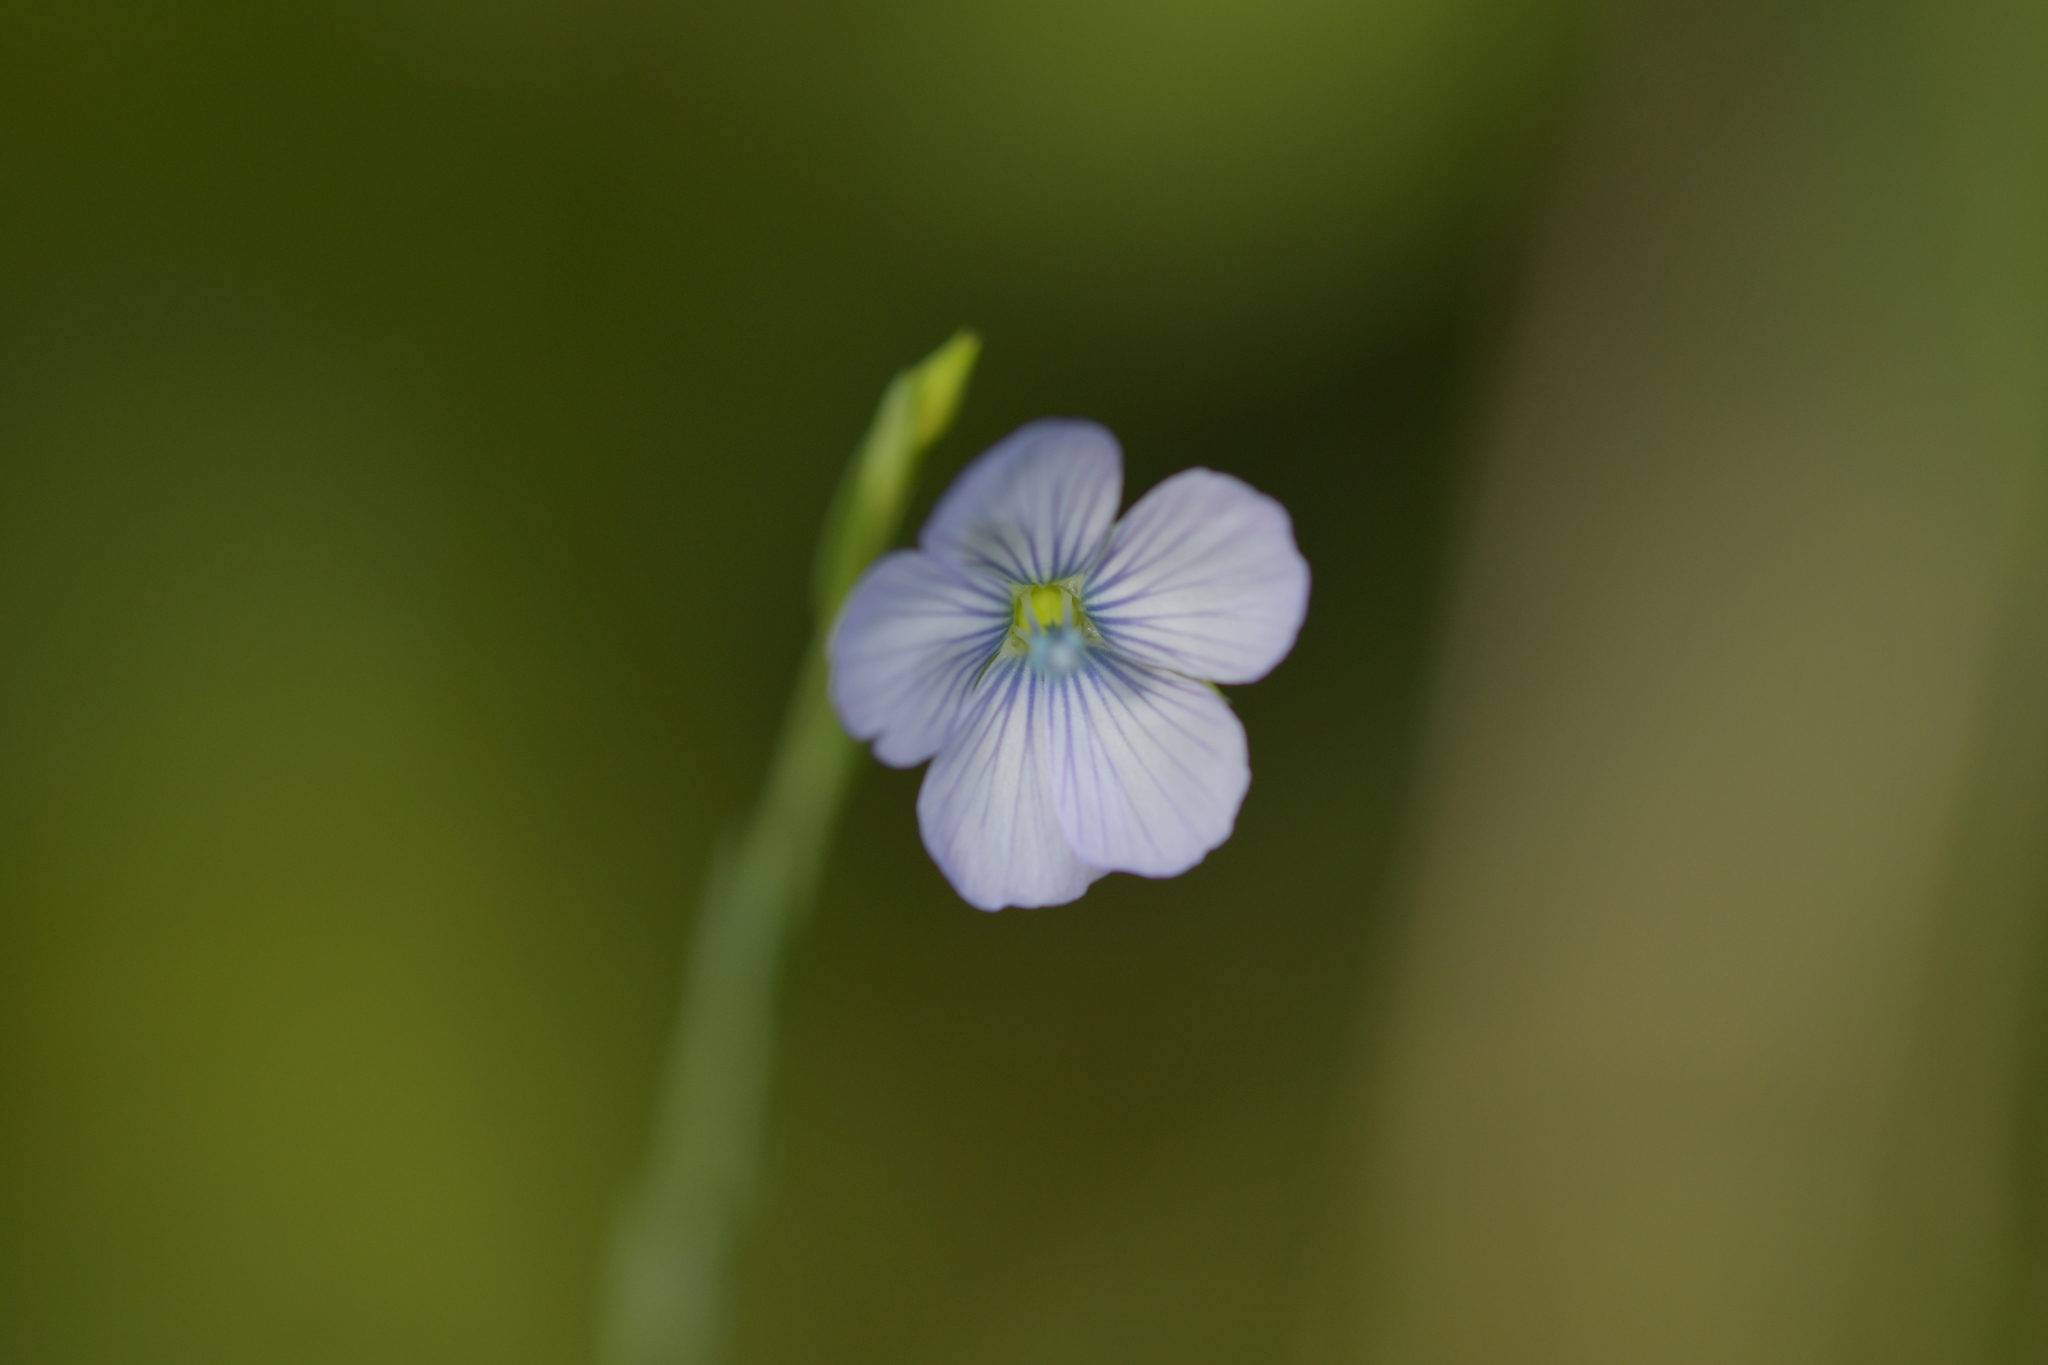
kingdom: Plantae
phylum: Tracheophyta
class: Magnoliopsida
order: Malpighiales
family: Linaceae
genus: Linum
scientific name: Linum bienne
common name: Pale flax
